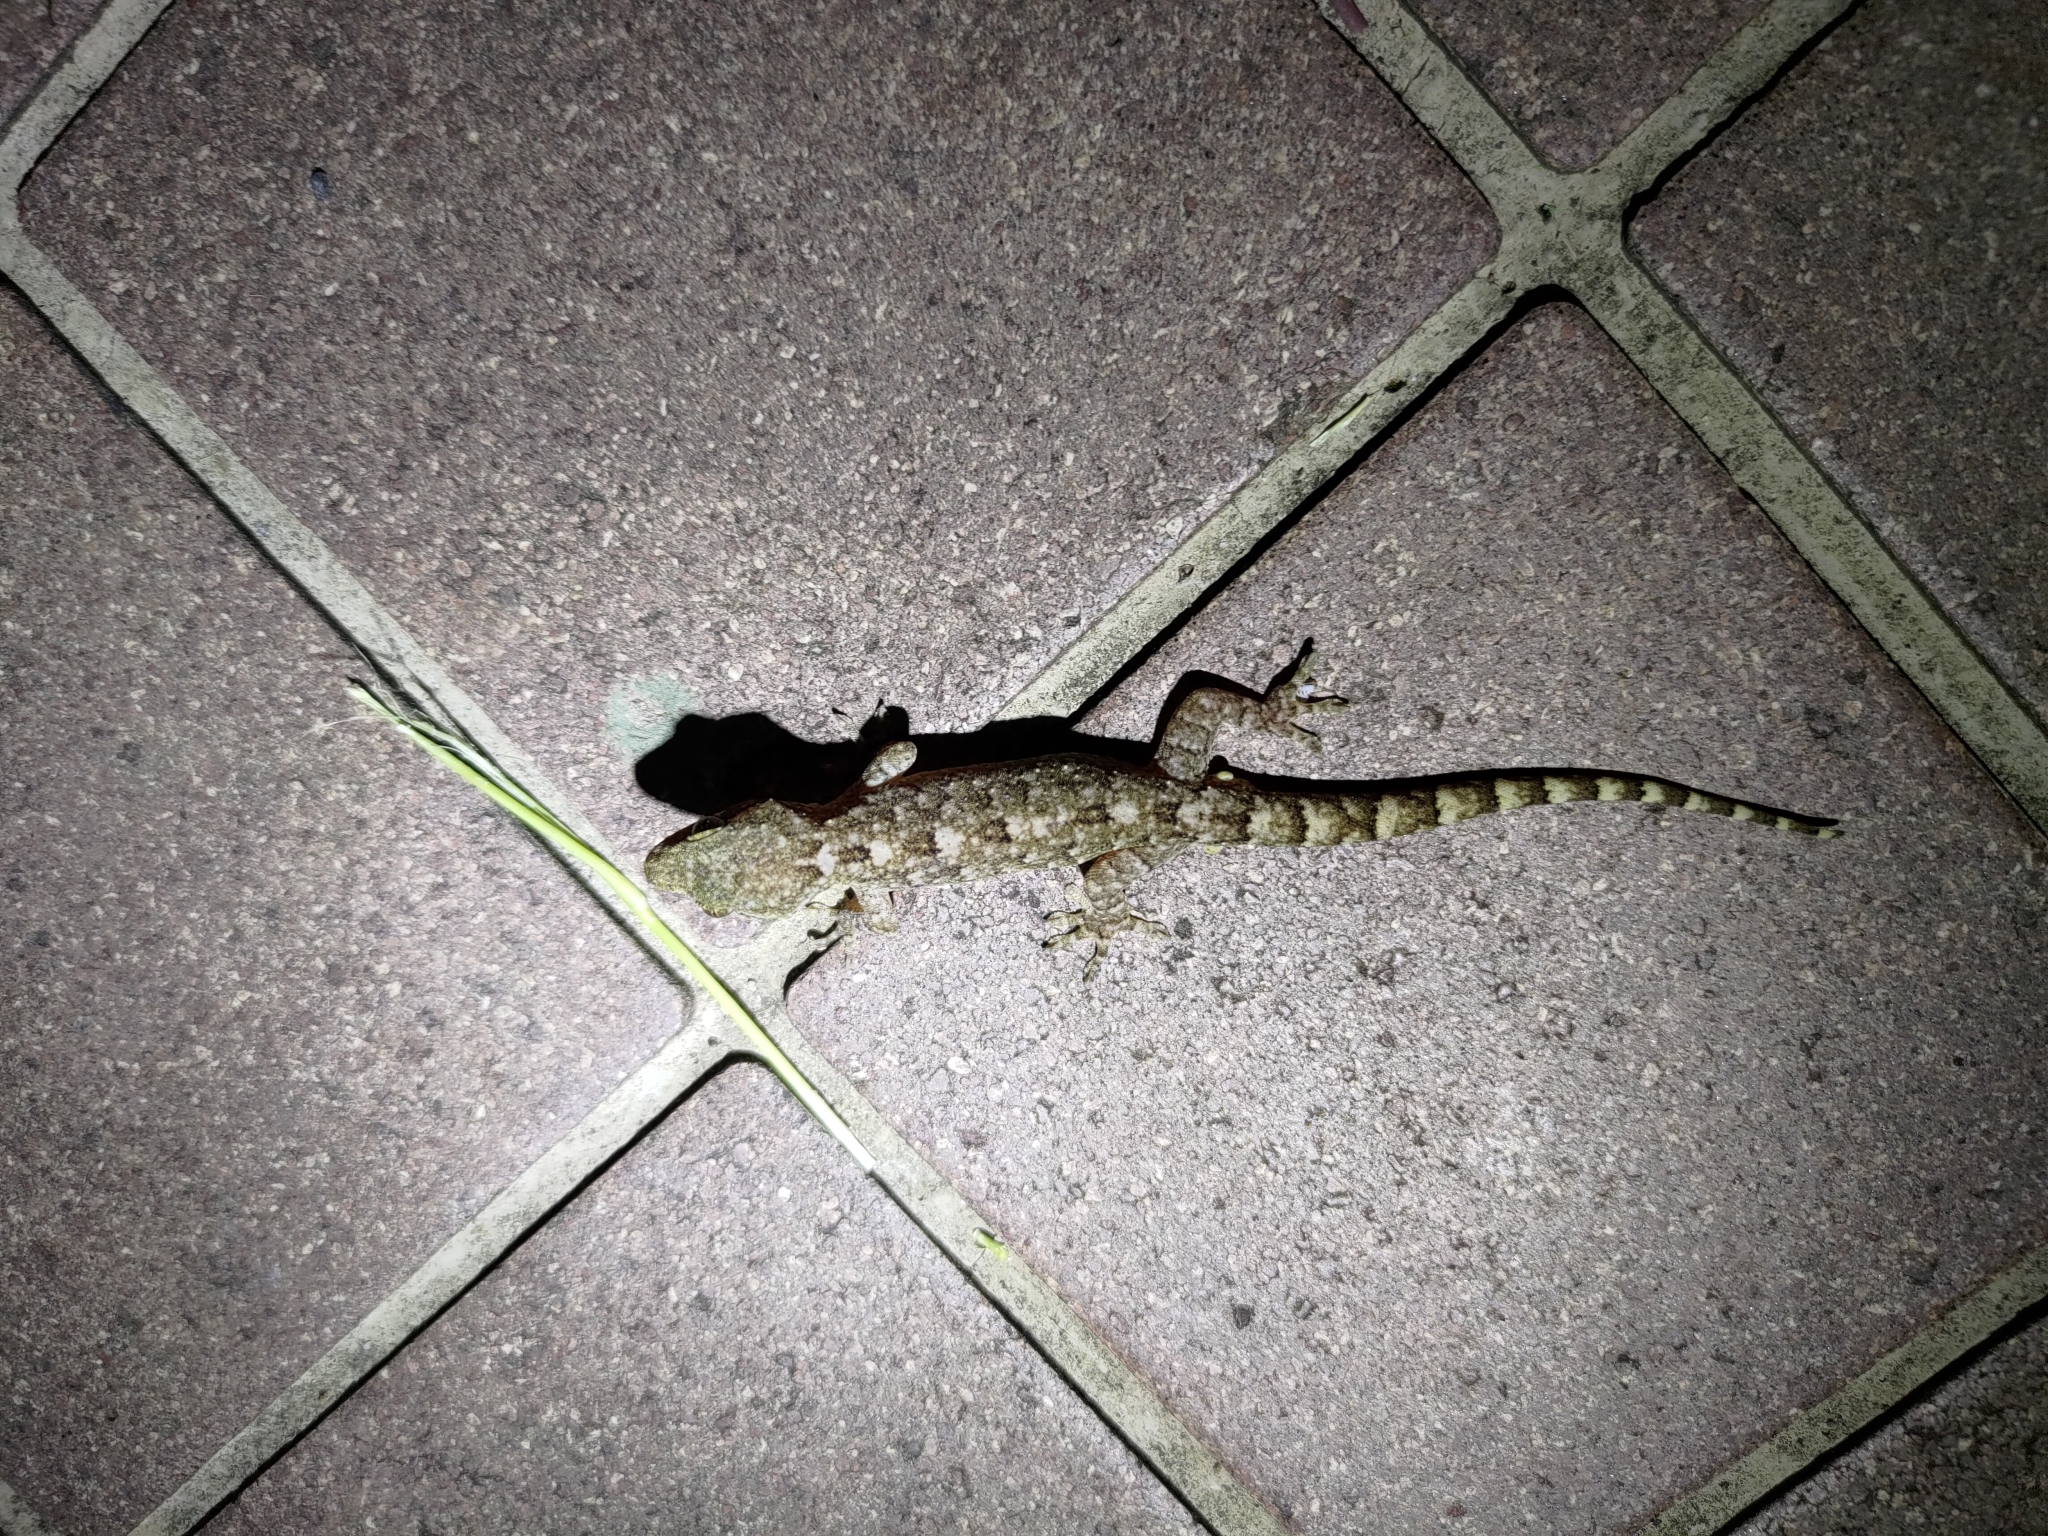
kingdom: Animalia
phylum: Chordata
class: Squamata
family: Gekkonidae
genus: Gekko
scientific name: Gekko hokouensis
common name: Kwangsi gecko
